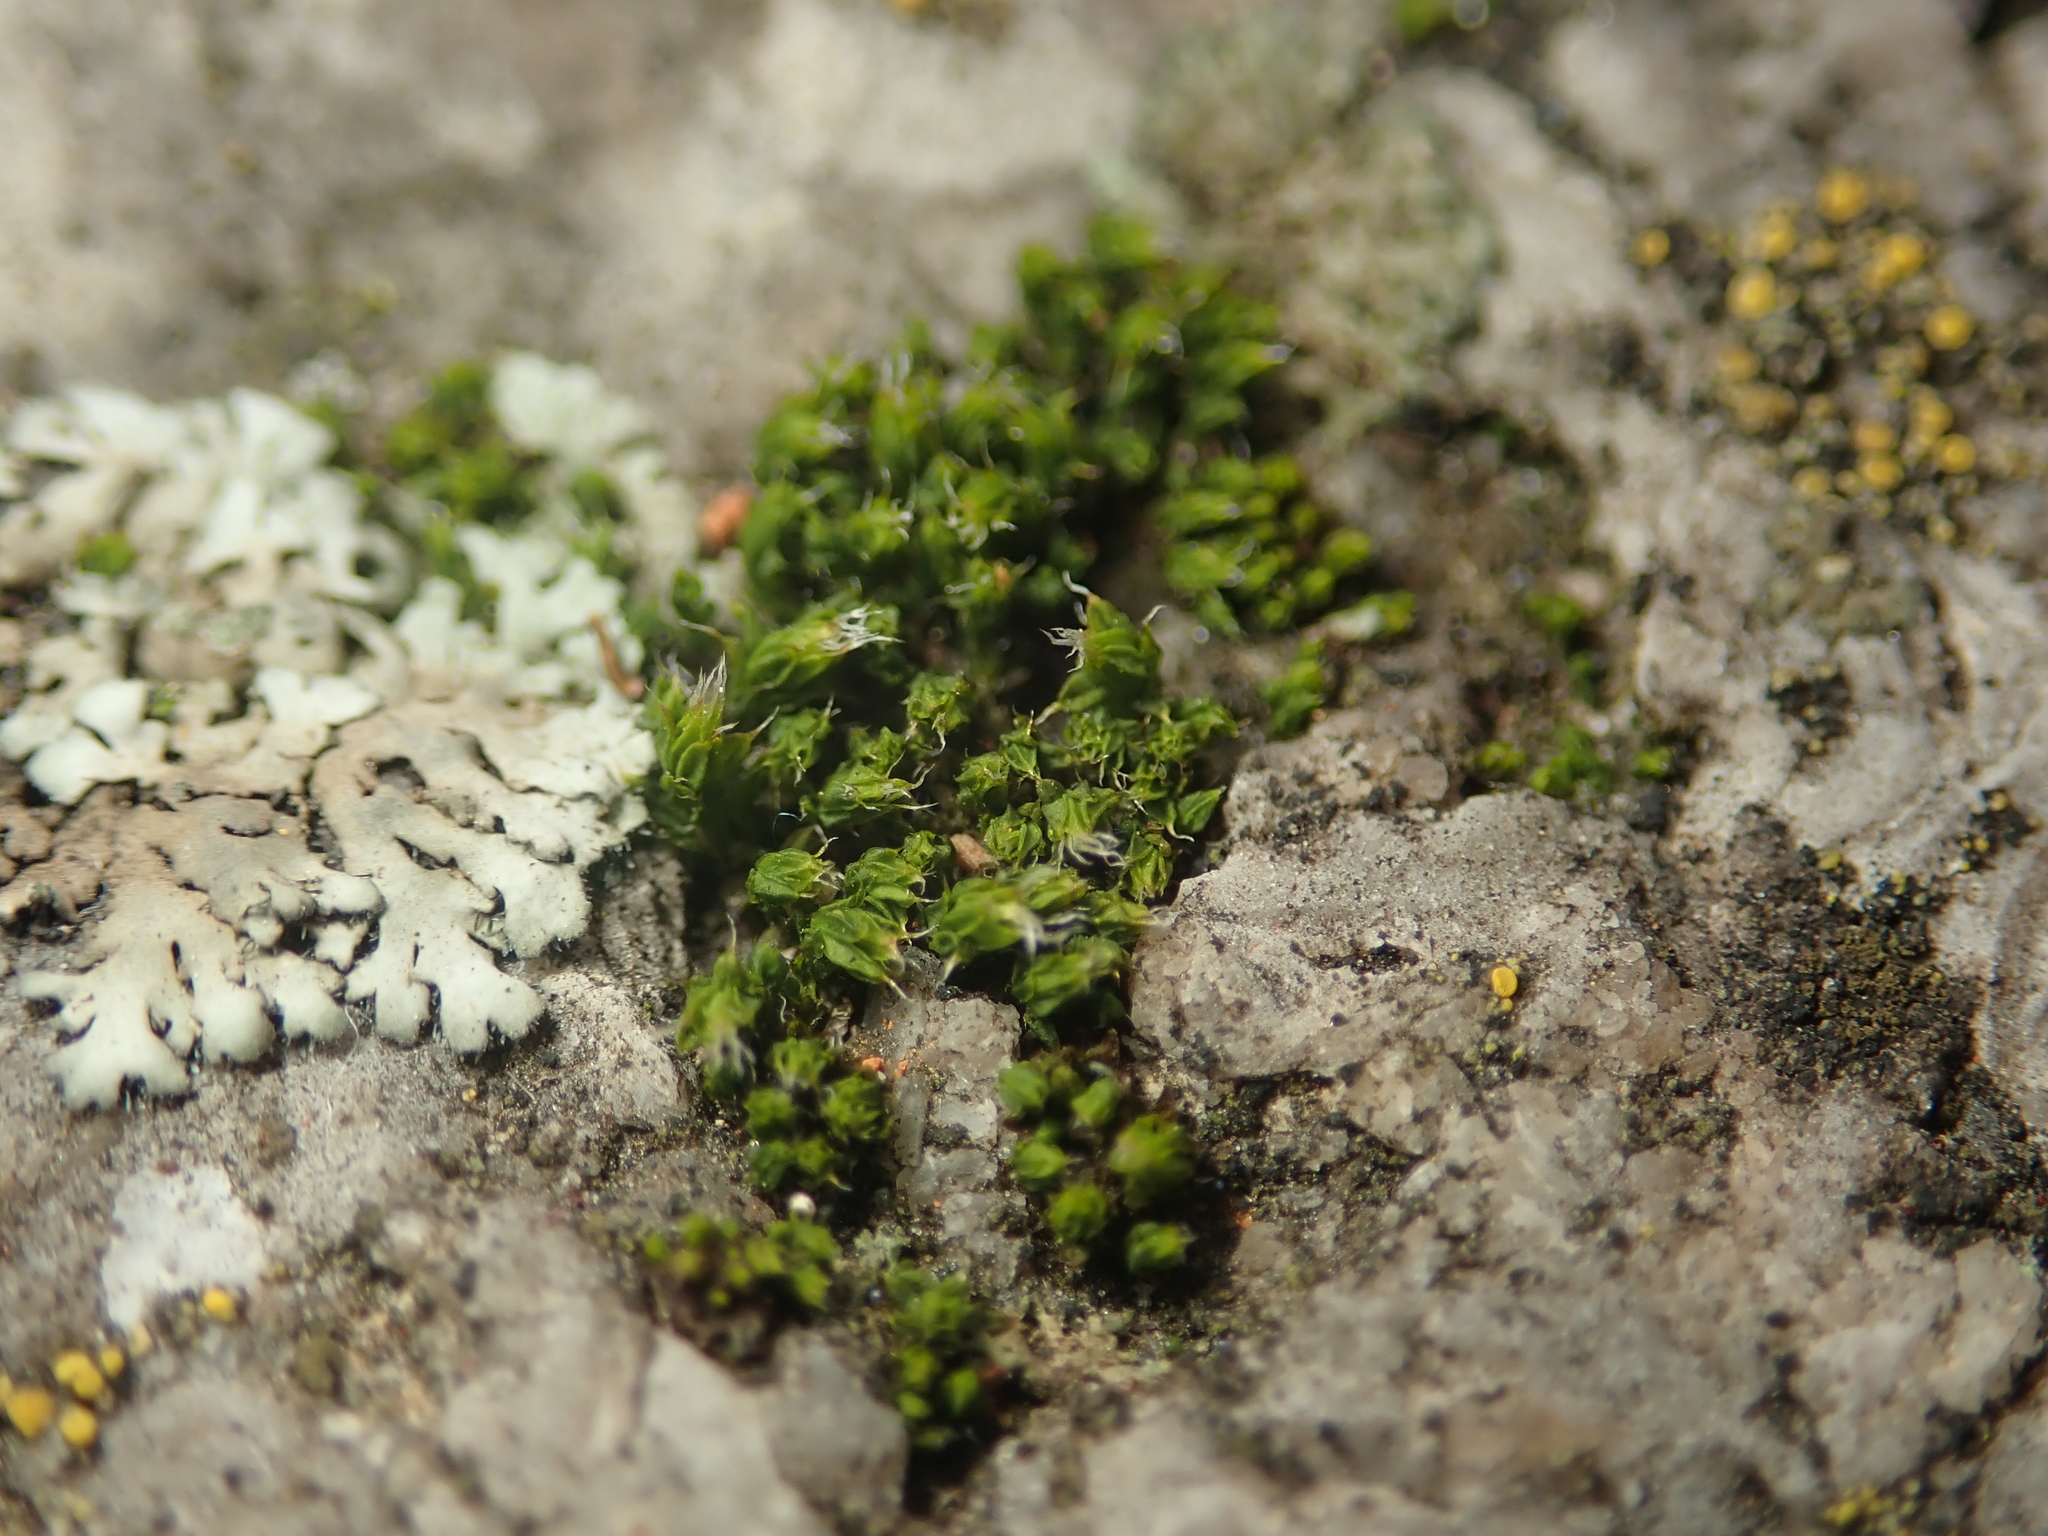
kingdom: Plantae
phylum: Bryophyta
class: Bryopsida
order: Orthotrichales
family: Orthotrichaceae
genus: Orthotrichum
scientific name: Orthotrichum diaphanum
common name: White-tipped bristle-moss
